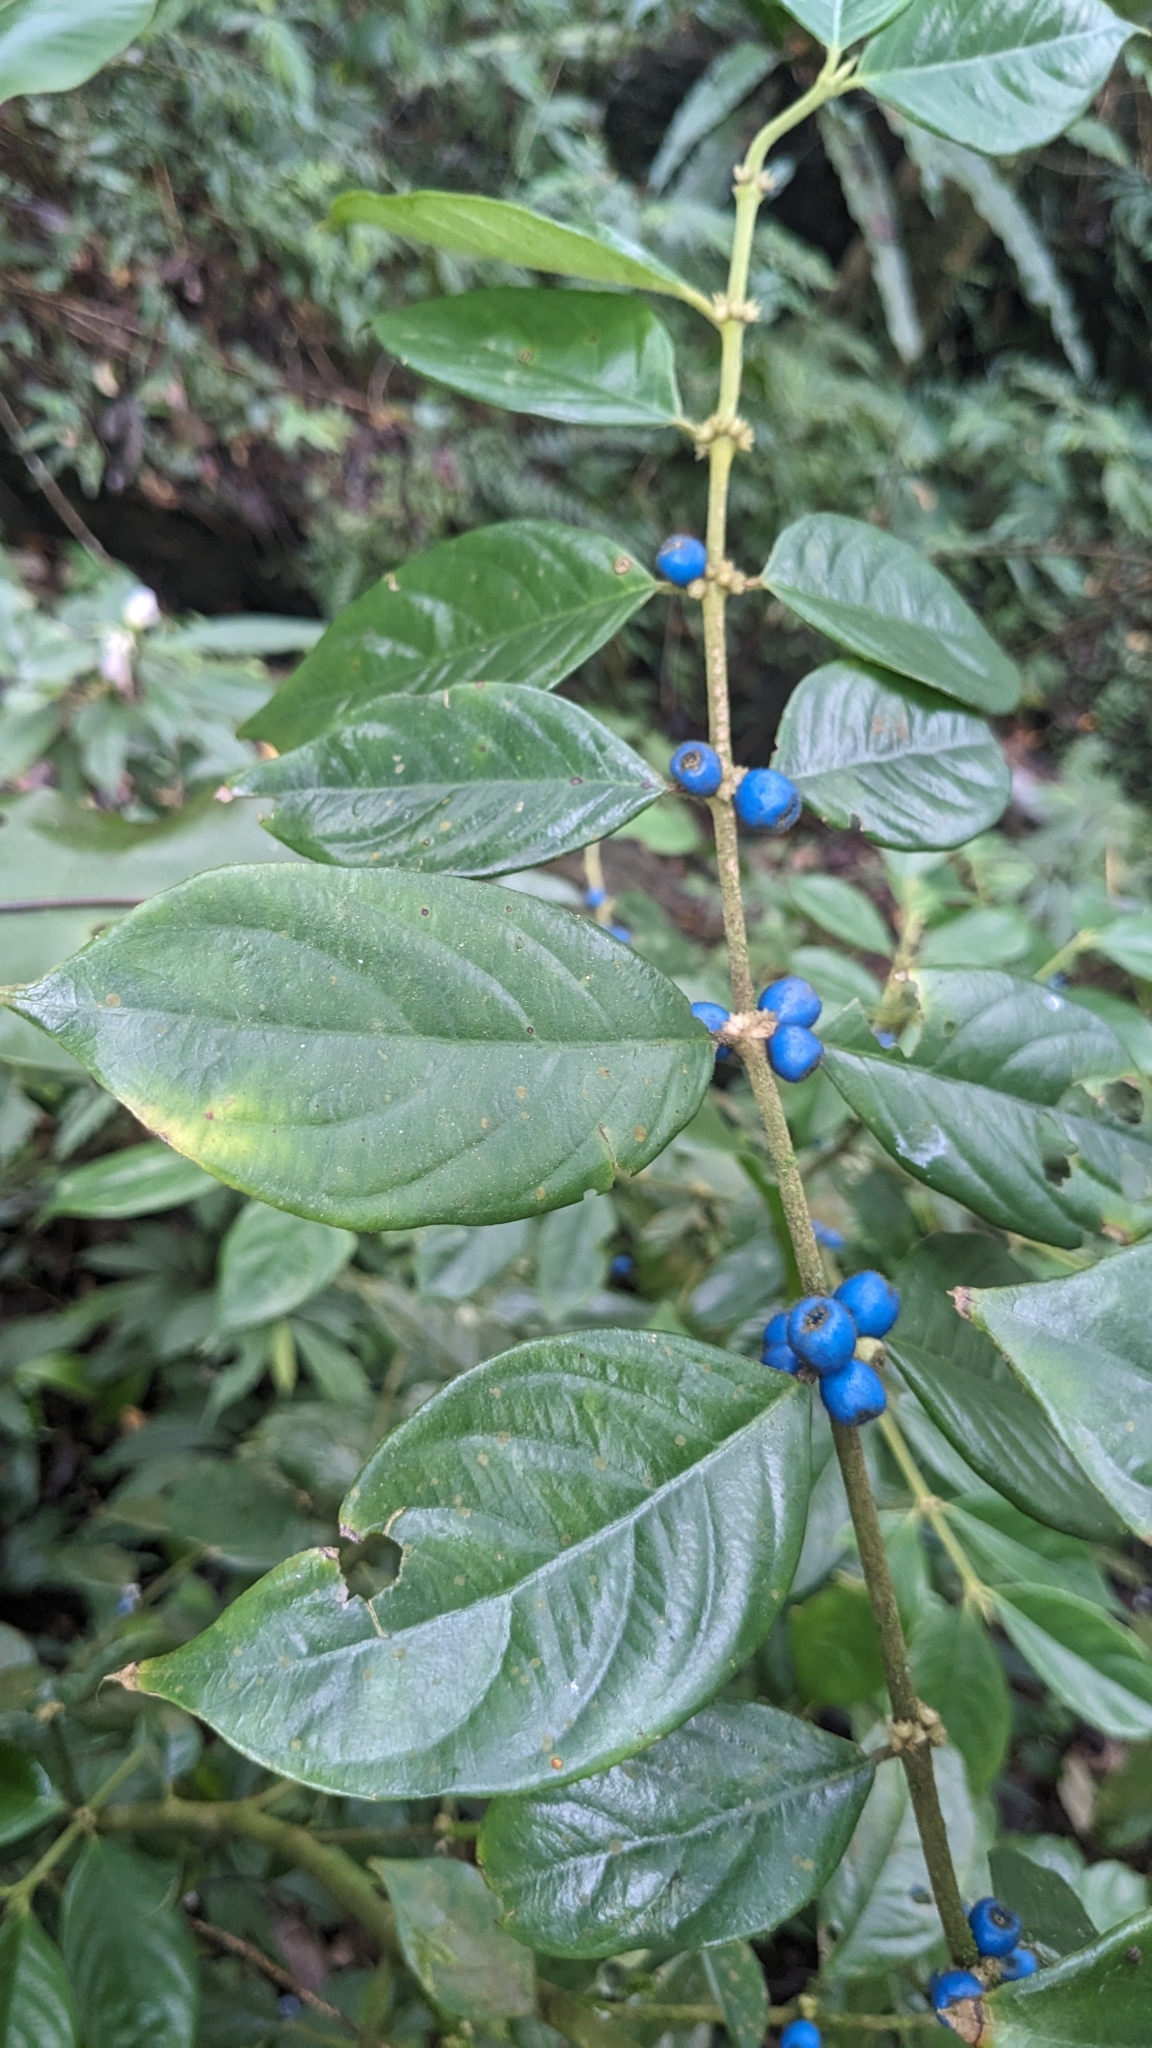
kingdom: Plantae
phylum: Tracheophyta
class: Magnoliopsida
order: Gentianales
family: Rubiaceae
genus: Lasianthus
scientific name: Lasianthus hispidulus
